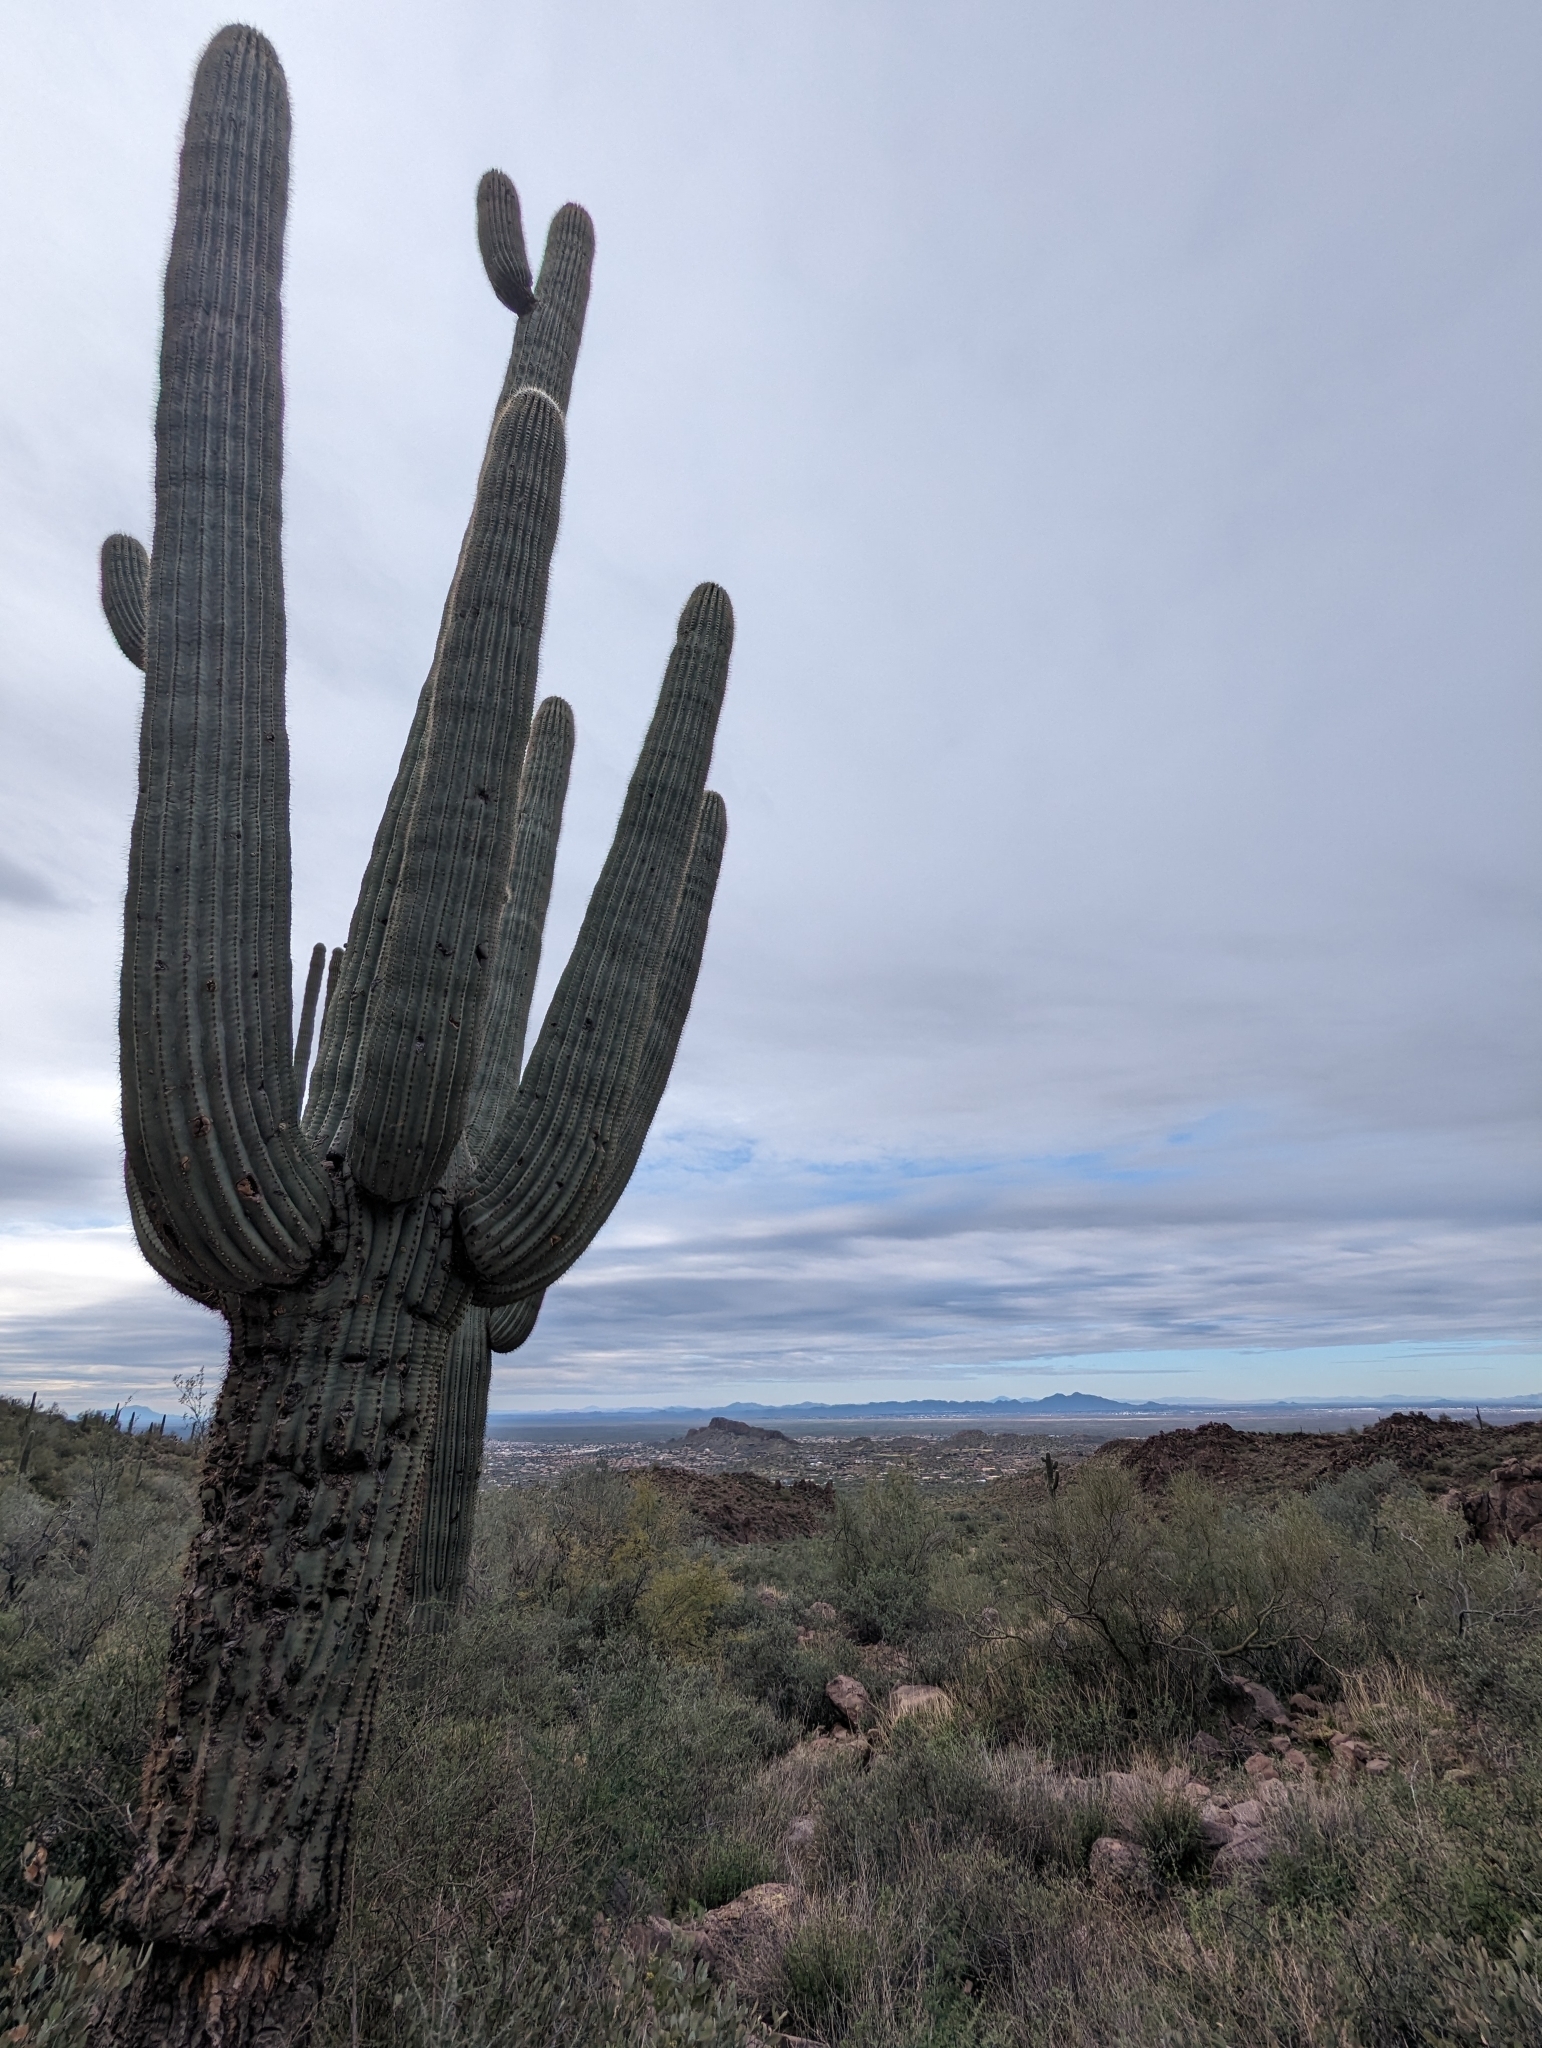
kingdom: Plantae
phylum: Tracheophyta
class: Magnoliopsida
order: Caryophyllales
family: Cactaceae
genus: Carnegiea
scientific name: Carnegiea gigantea
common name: Saguaro
